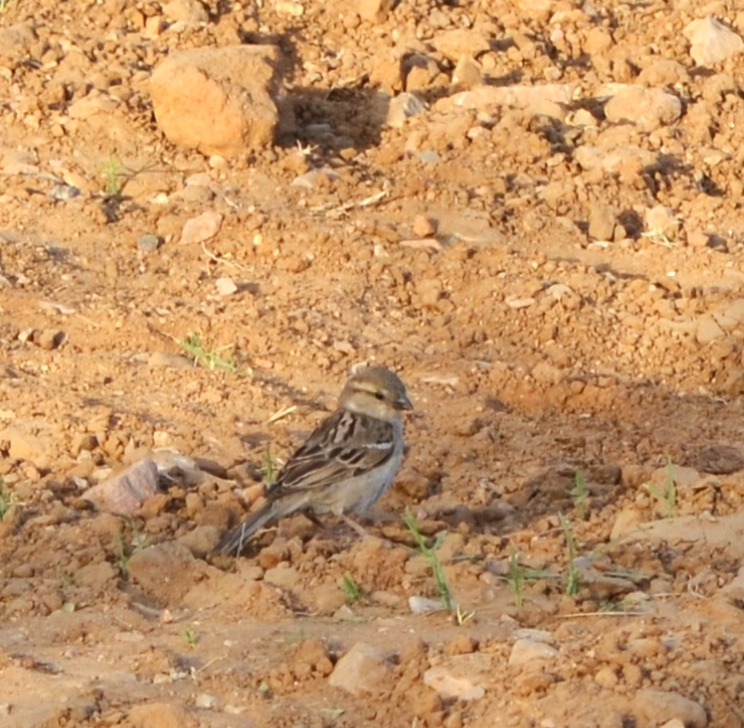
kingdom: Animalia
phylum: Chordata
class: Aves
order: Passeriformes
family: Passeridae
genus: Passer
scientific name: Passer domesticus
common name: House sparrow
